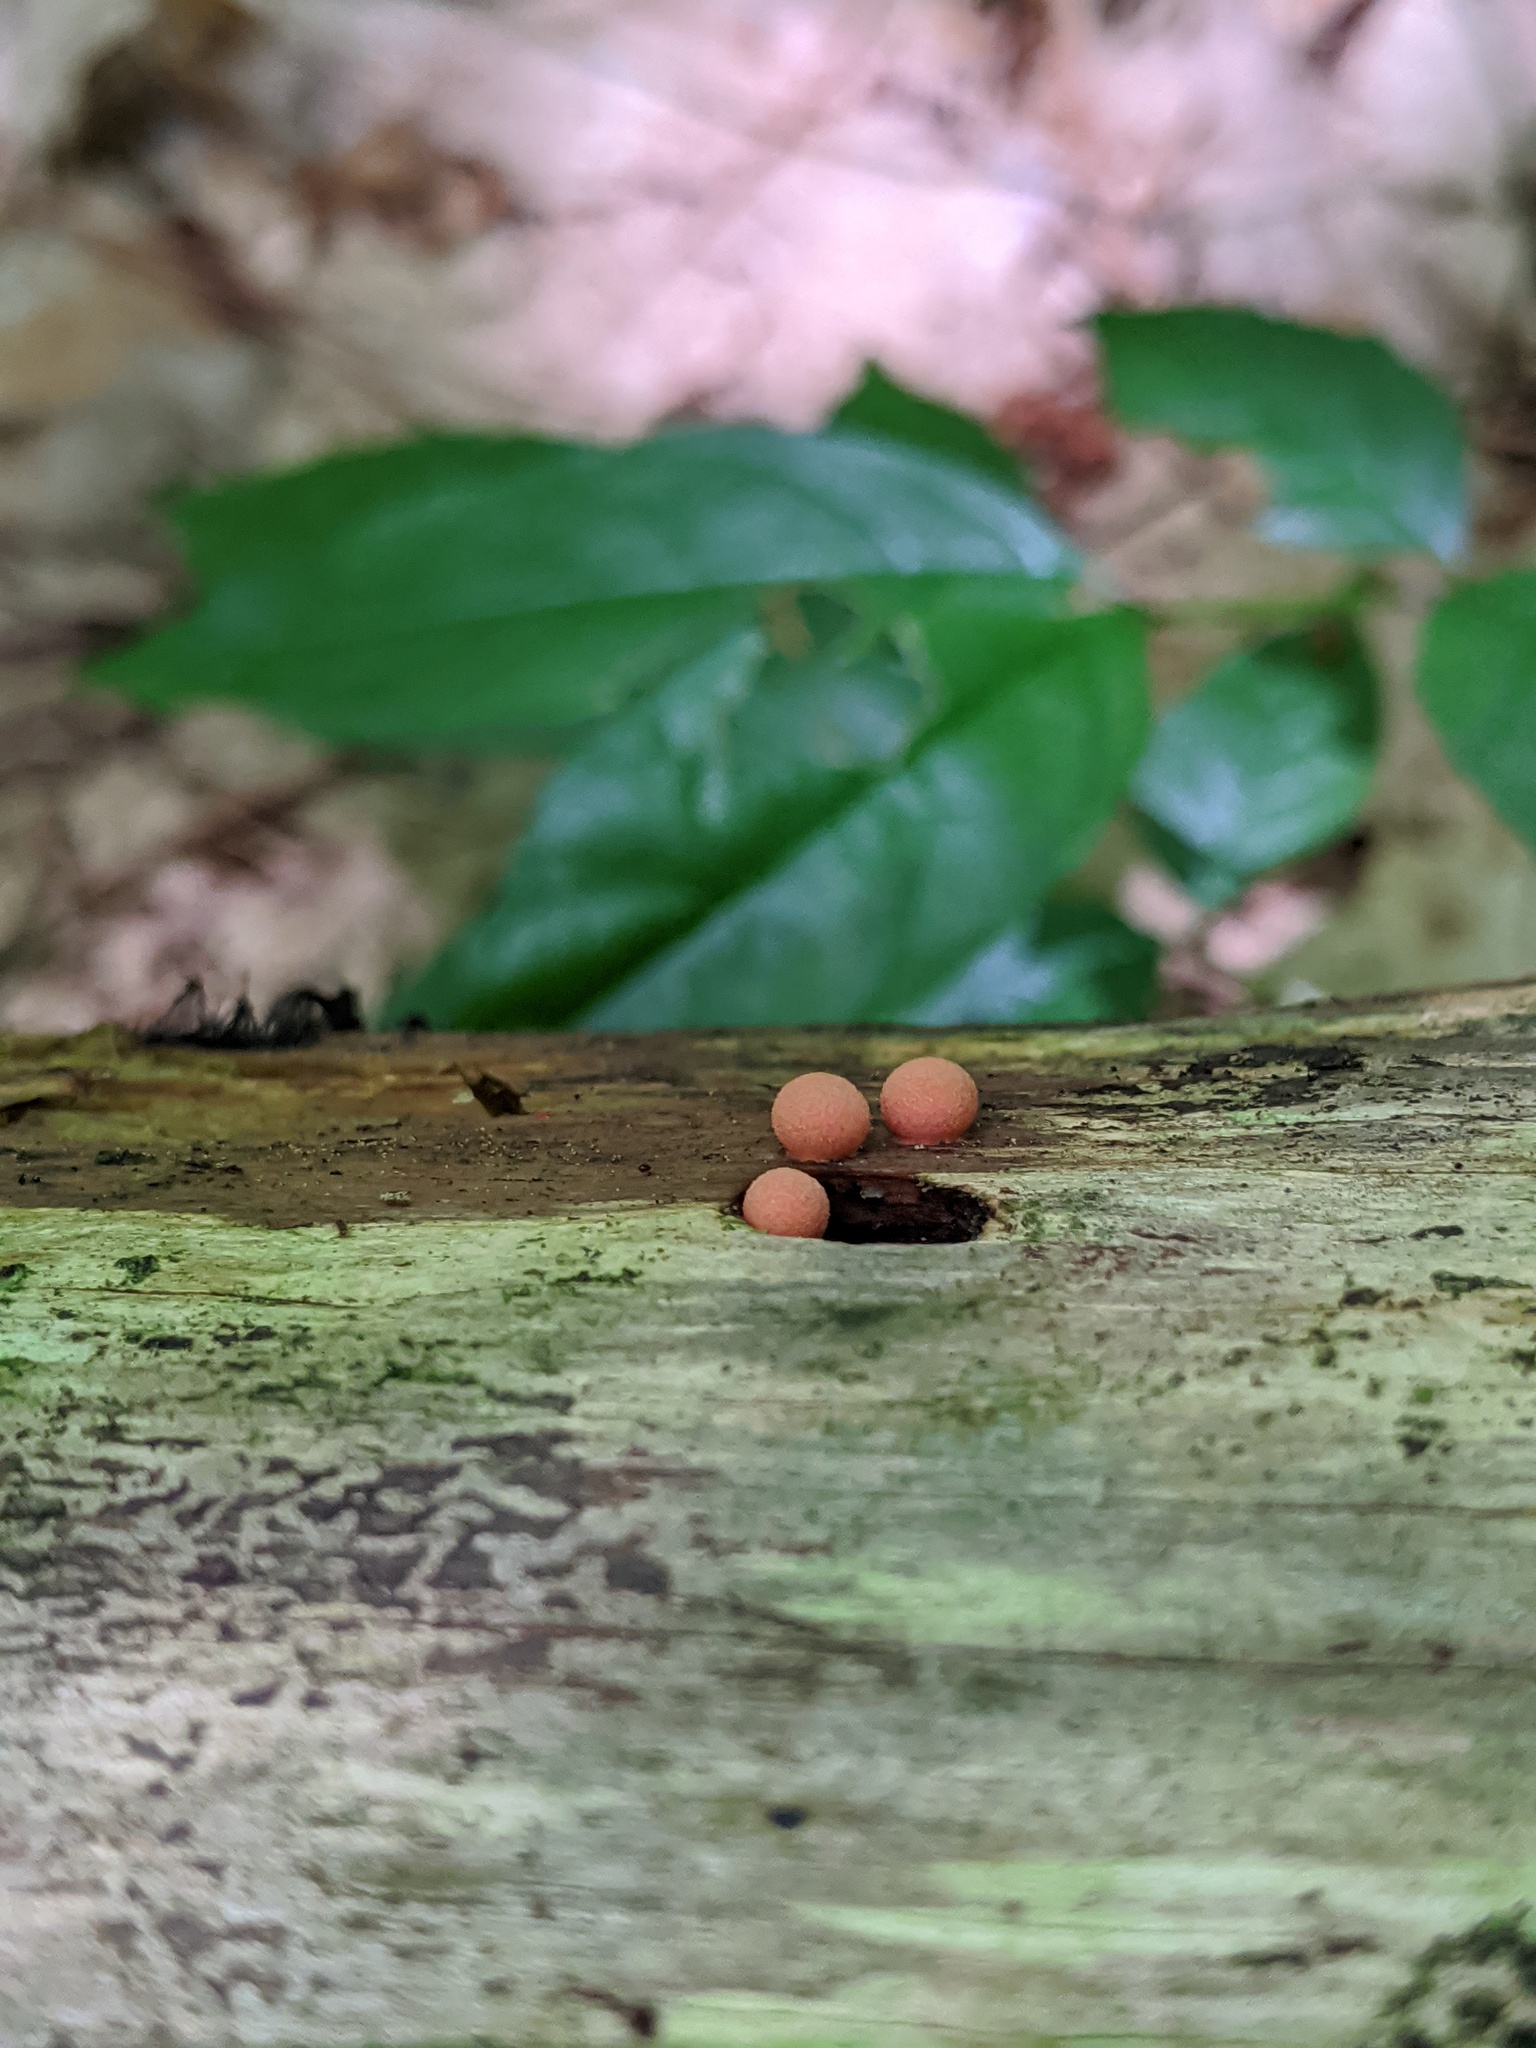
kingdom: Protozoa
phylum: Mycetozoa
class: Myxomycetes
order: Cribrariales
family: Tubiferaceae
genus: Lycogala
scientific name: Lycogala epidendrum
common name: Wolf's milk
